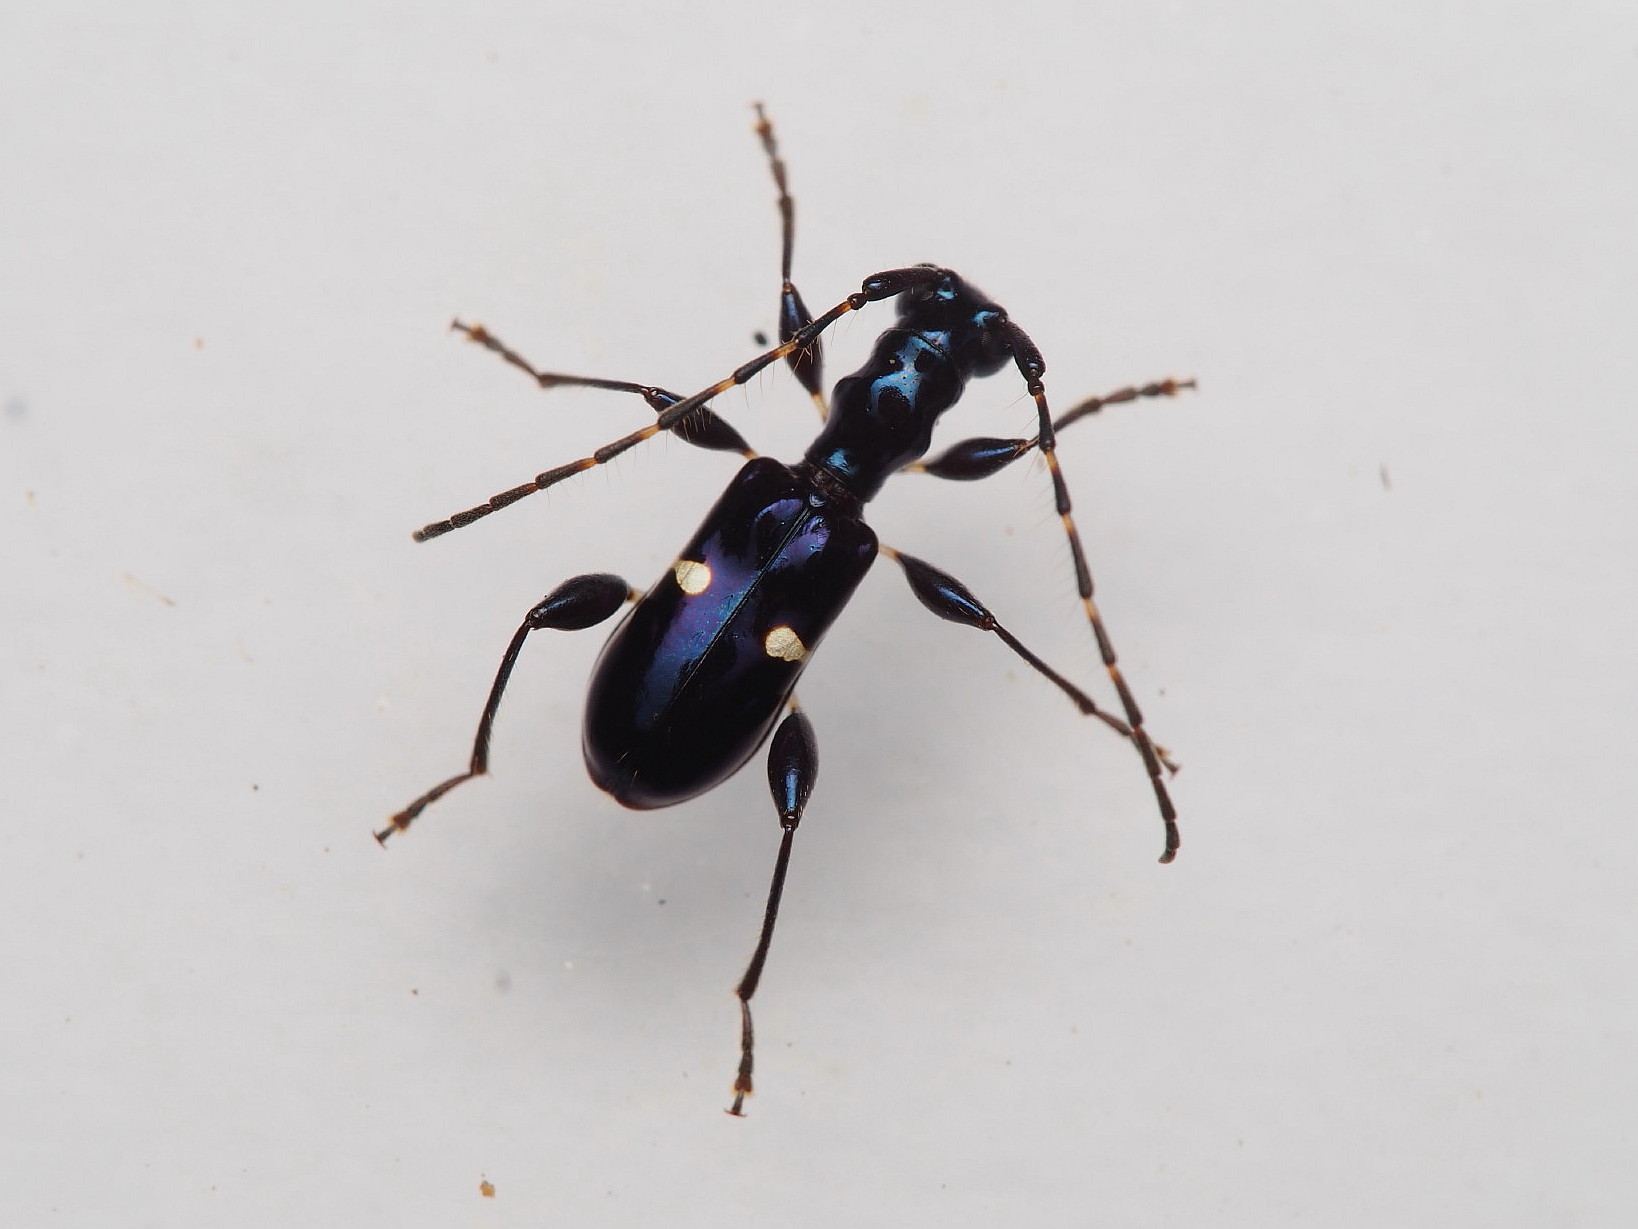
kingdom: Animalia
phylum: Arthropoda
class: Insecta
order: Coleoptera
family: Cerambycidae
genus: Zorion
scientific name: Zorion batesi
